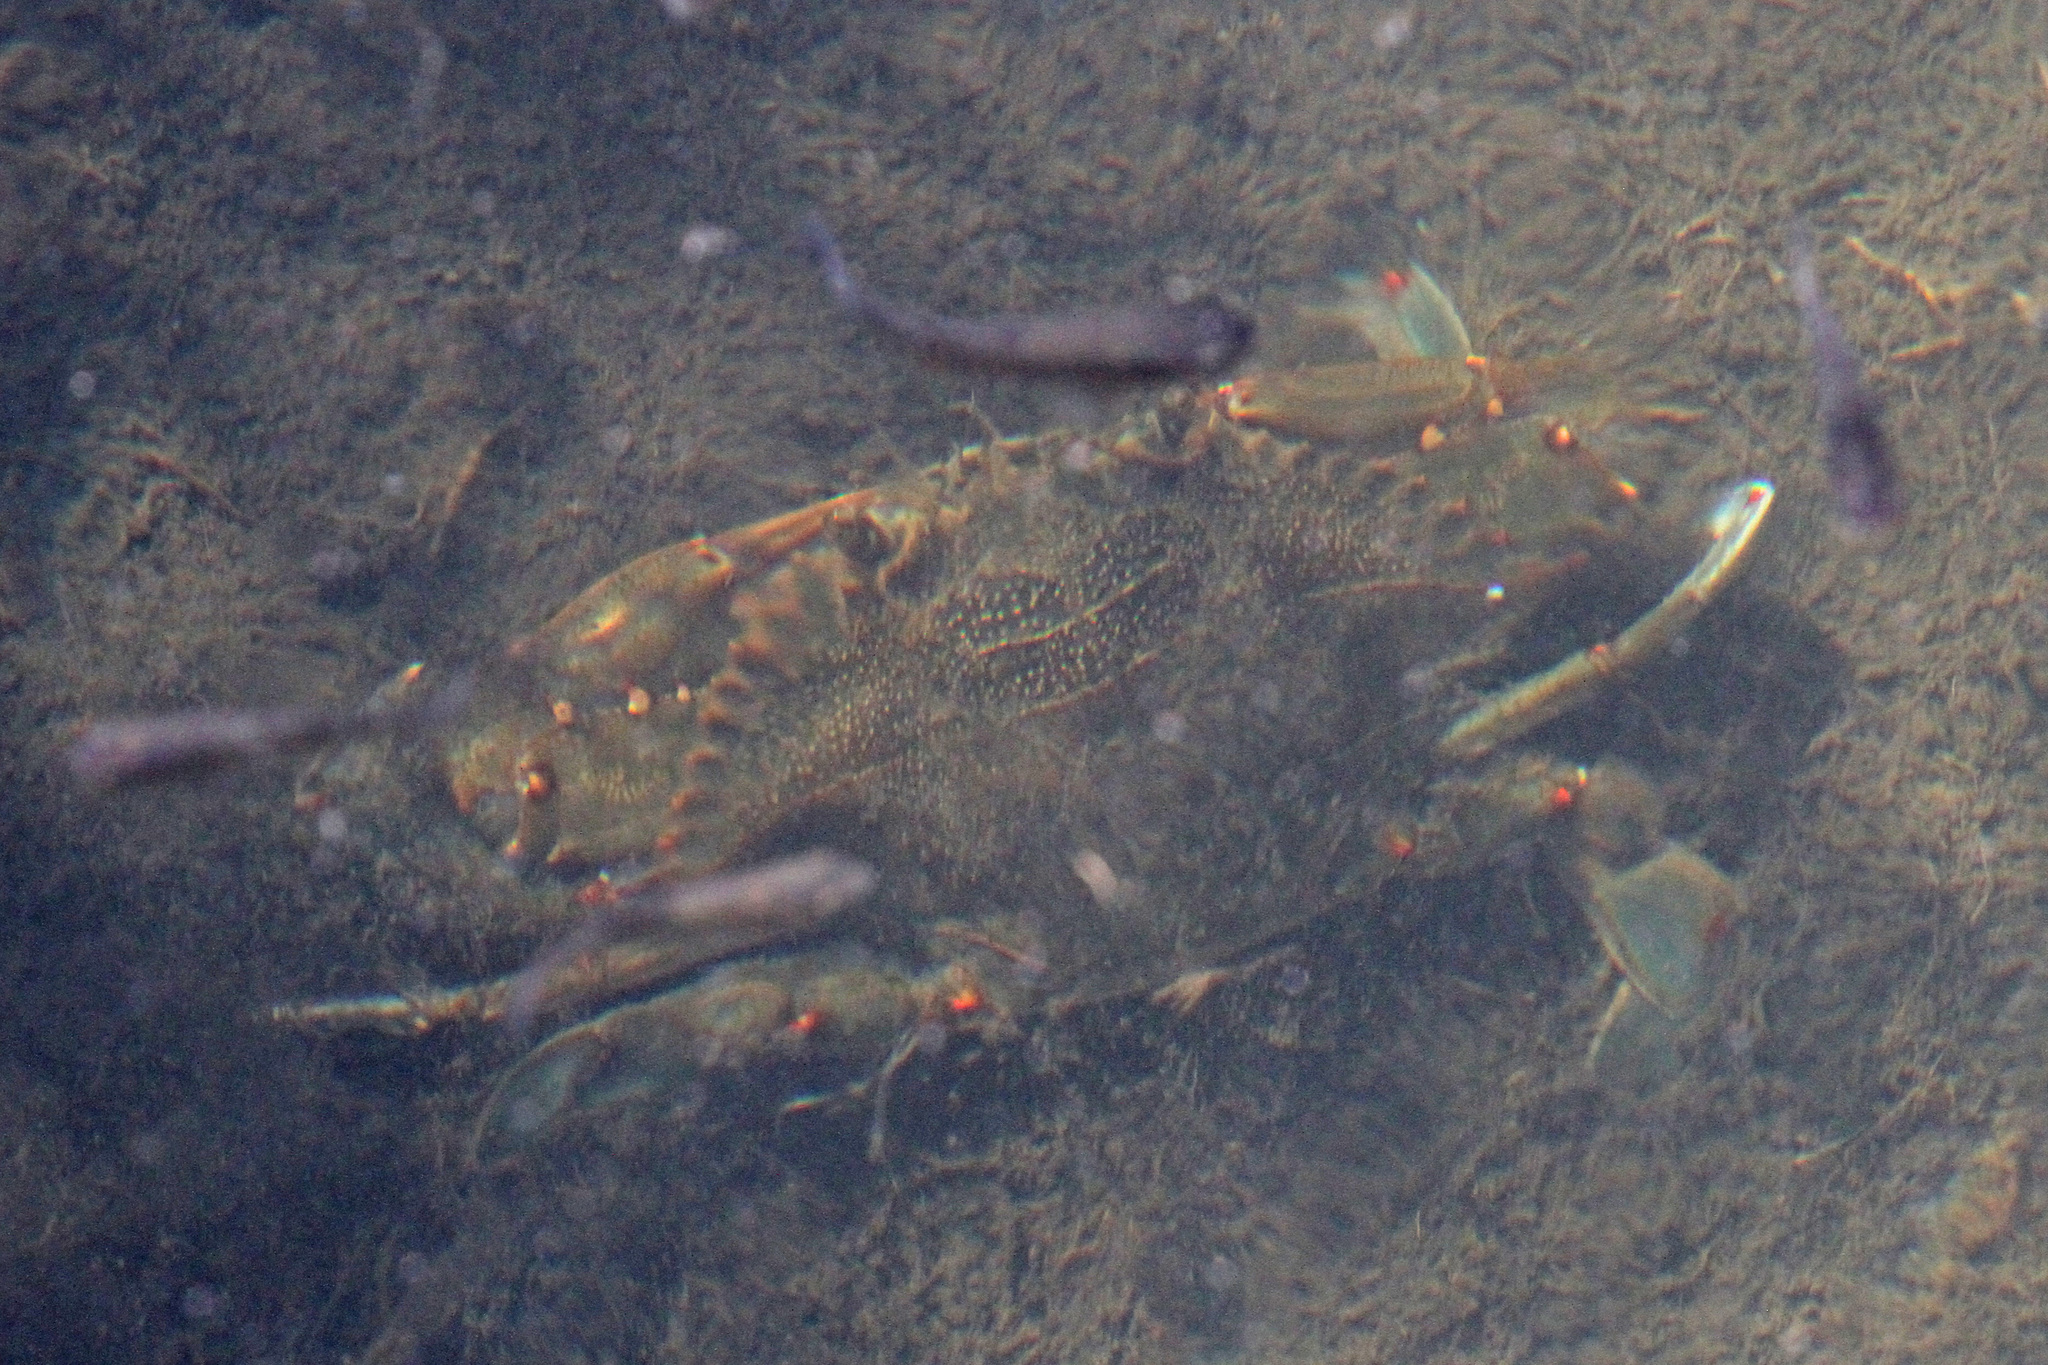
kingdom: Animalia
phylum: Arthropoda
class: Malacostraca
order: Decapoda
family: Portunidae
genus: Callinectes
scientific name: Callinectes sapidus
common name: Blue crab
